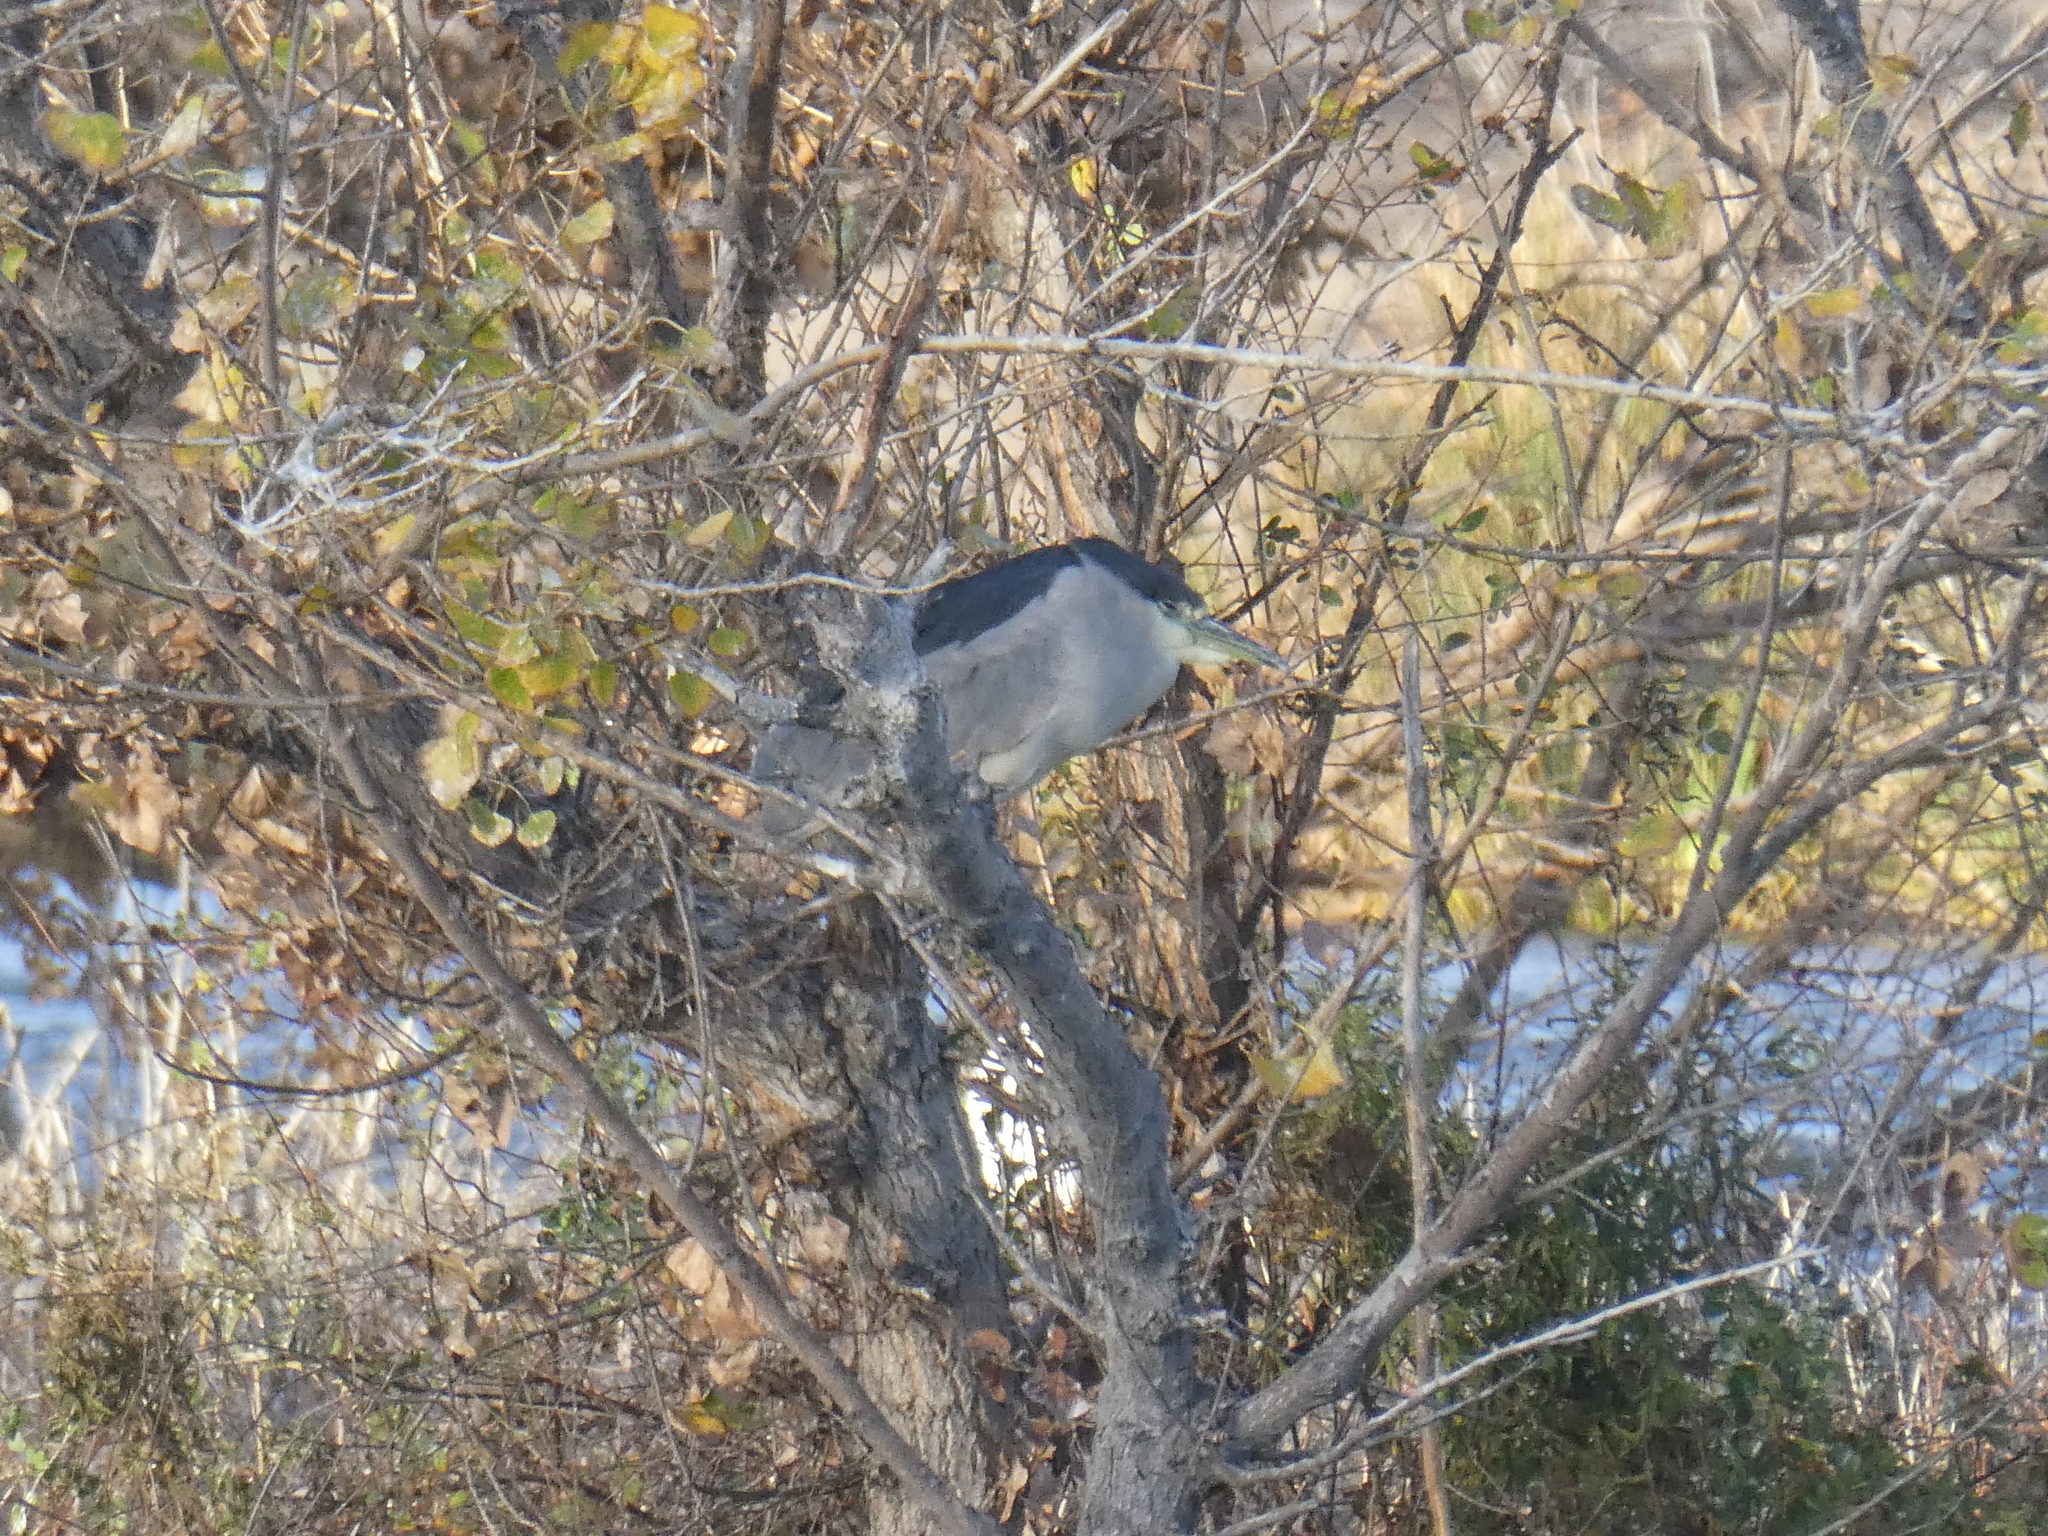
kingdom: Animalia
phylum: Chordata
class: Aves
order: Pelecaniformes
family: Ardeidae
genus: Nycticorax
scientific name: Nycticorax nycticorax
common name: Black-crowned night heron
